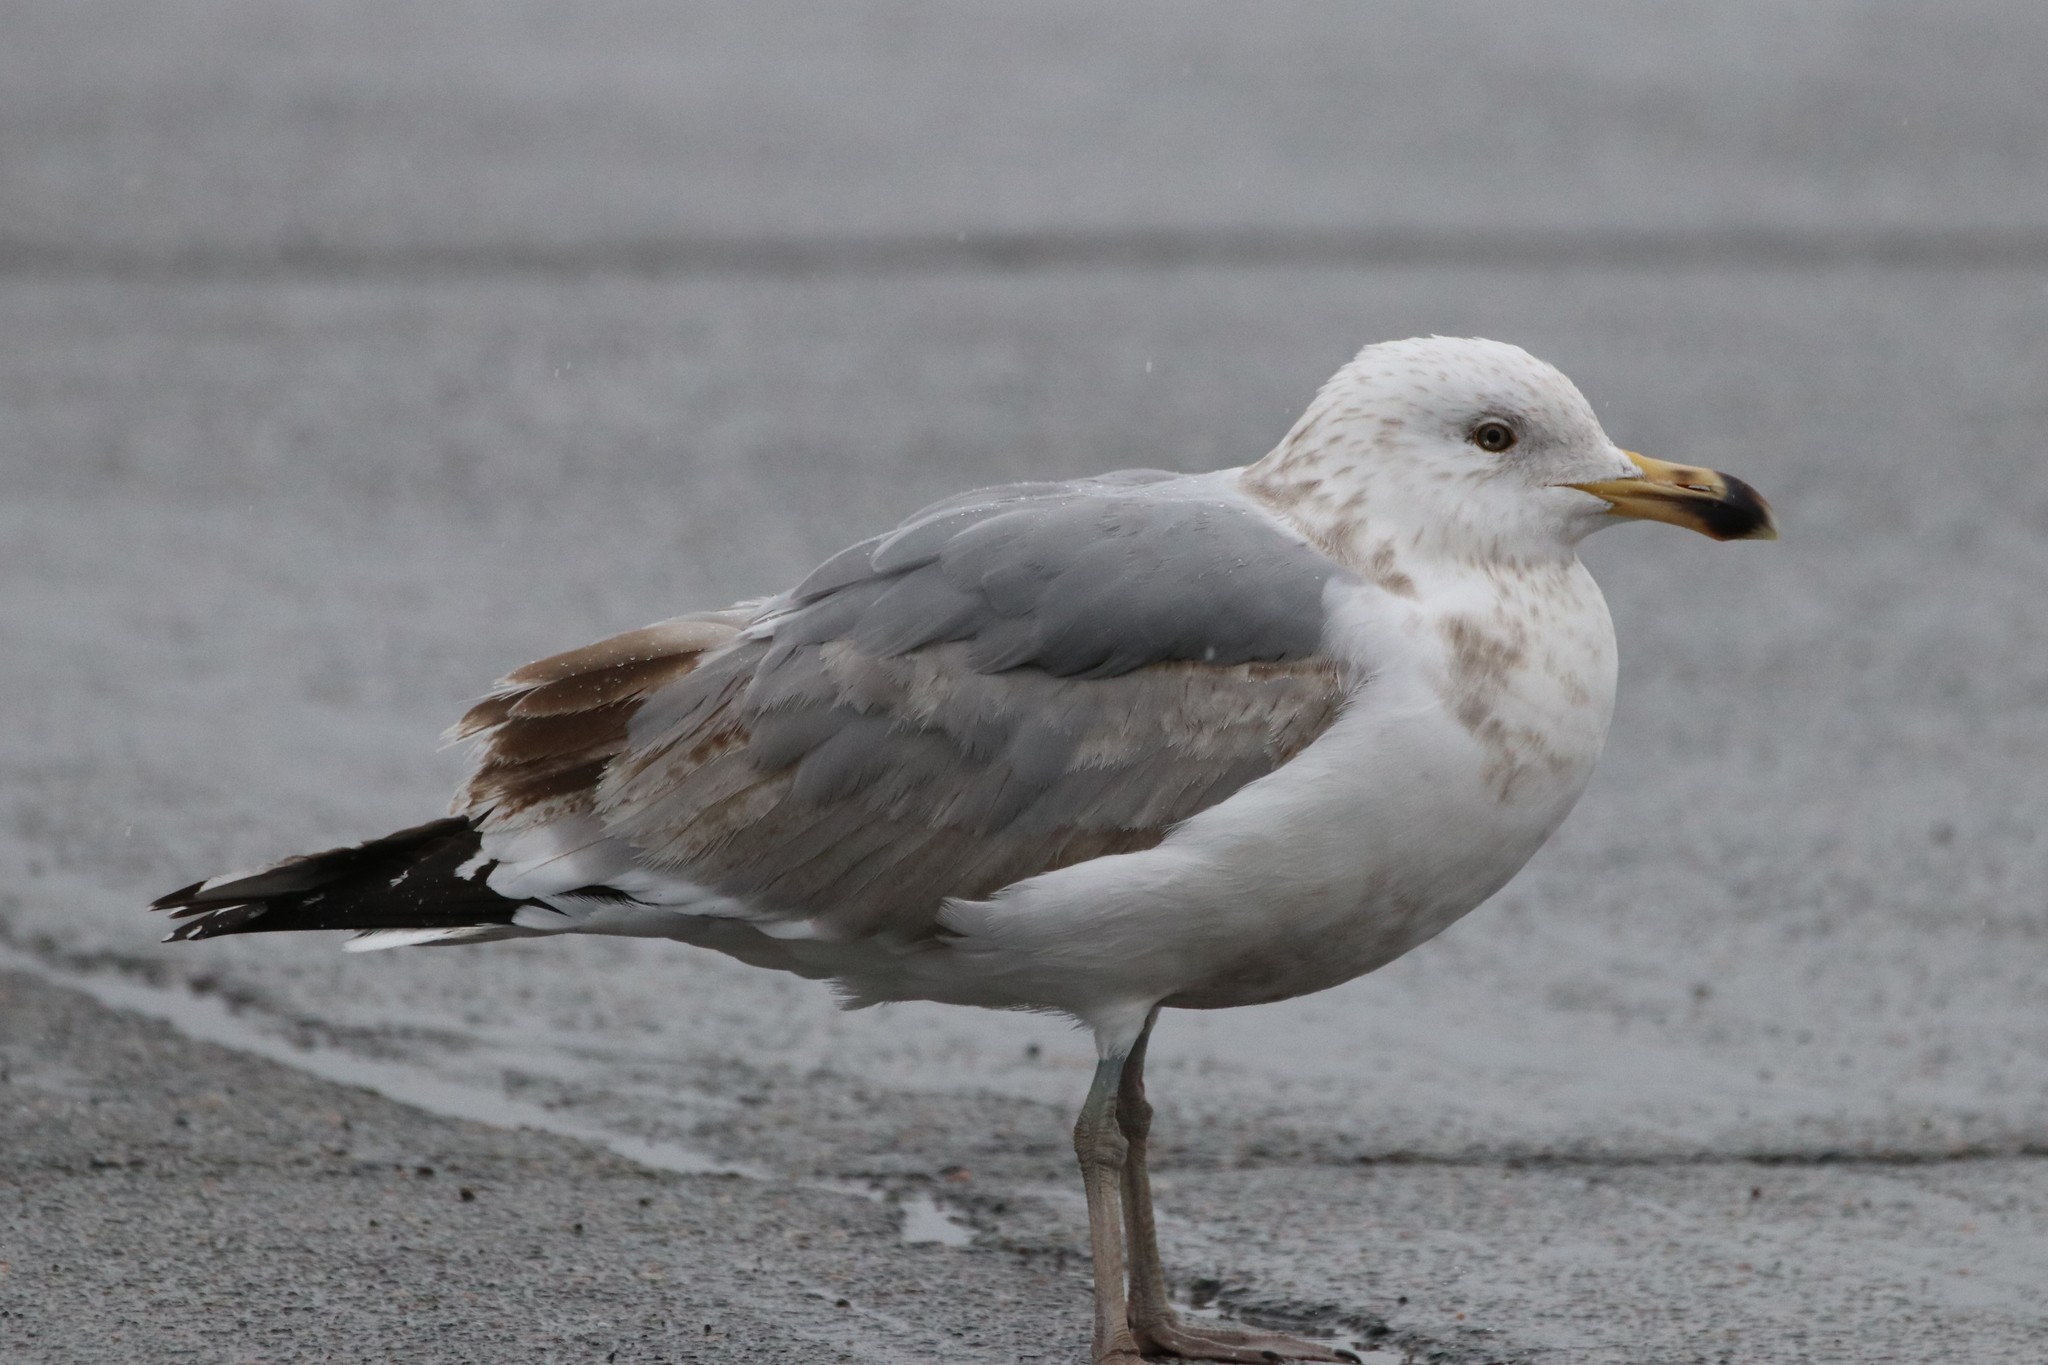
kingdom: Animalia
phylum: Chordata
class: Aves
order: Charadriiformes
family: Laridae
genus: Larus
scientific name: Larus delawarensis
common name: Ring-billed gull
